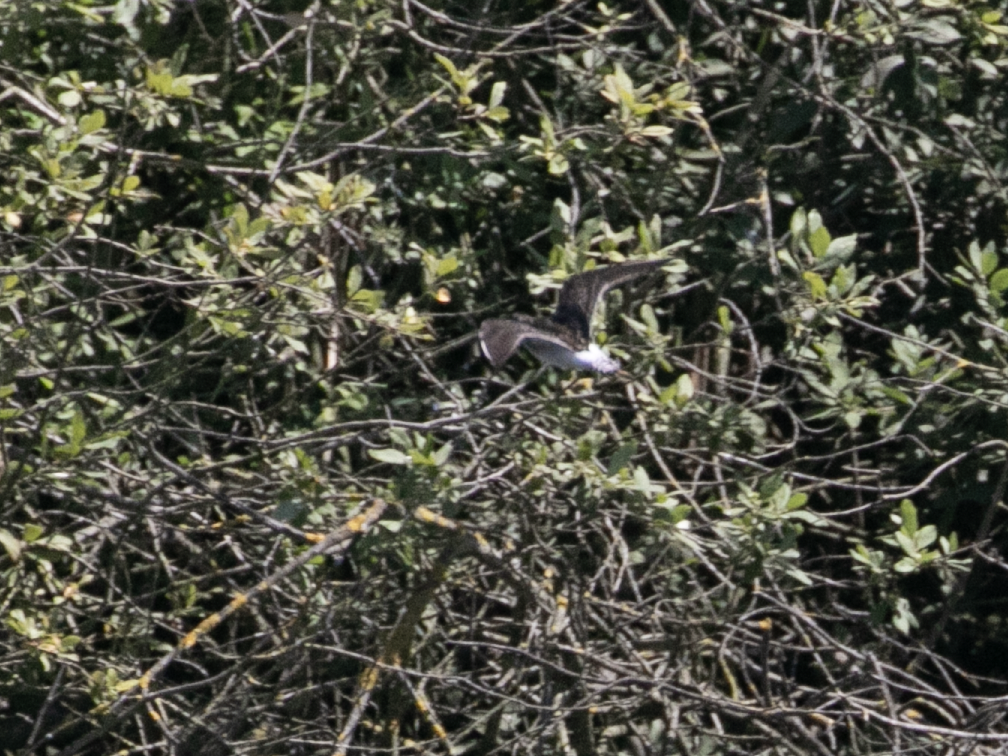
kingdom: Animalia
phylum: Chordata
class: Aves
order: Charadriiformes
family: Scolopacidae
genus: Tringa
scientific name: Tringa glareola
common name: Wood sandpiper
